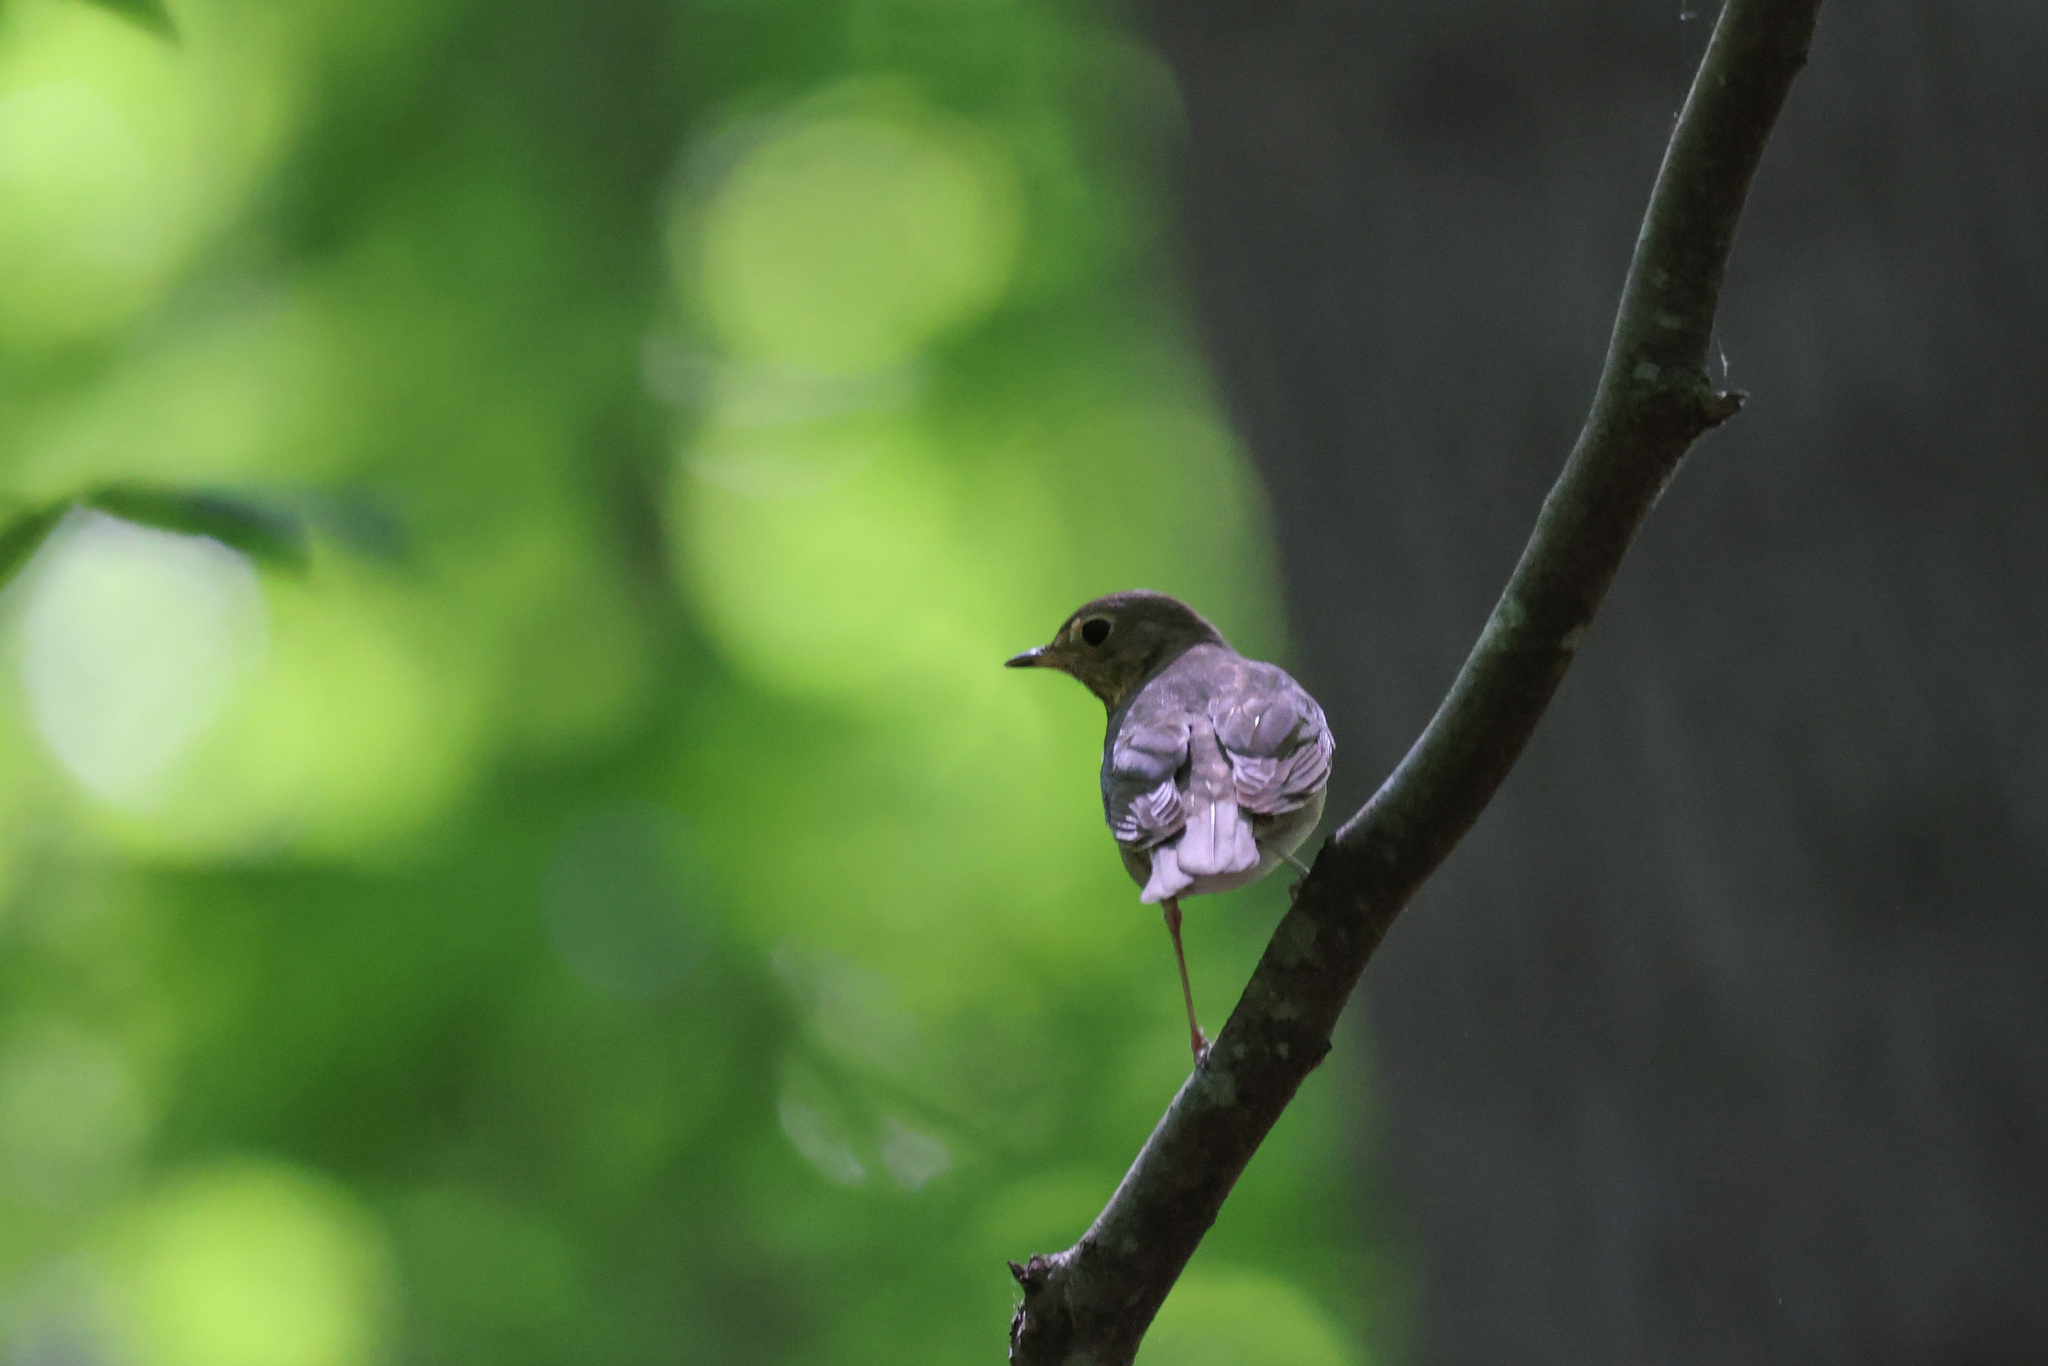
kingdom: Animalia
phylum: Chordata
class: Aves
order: Passeriformes
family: Turdidae
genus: Catharus
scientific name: Catharus ustulatus
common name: Swainson's thrush
